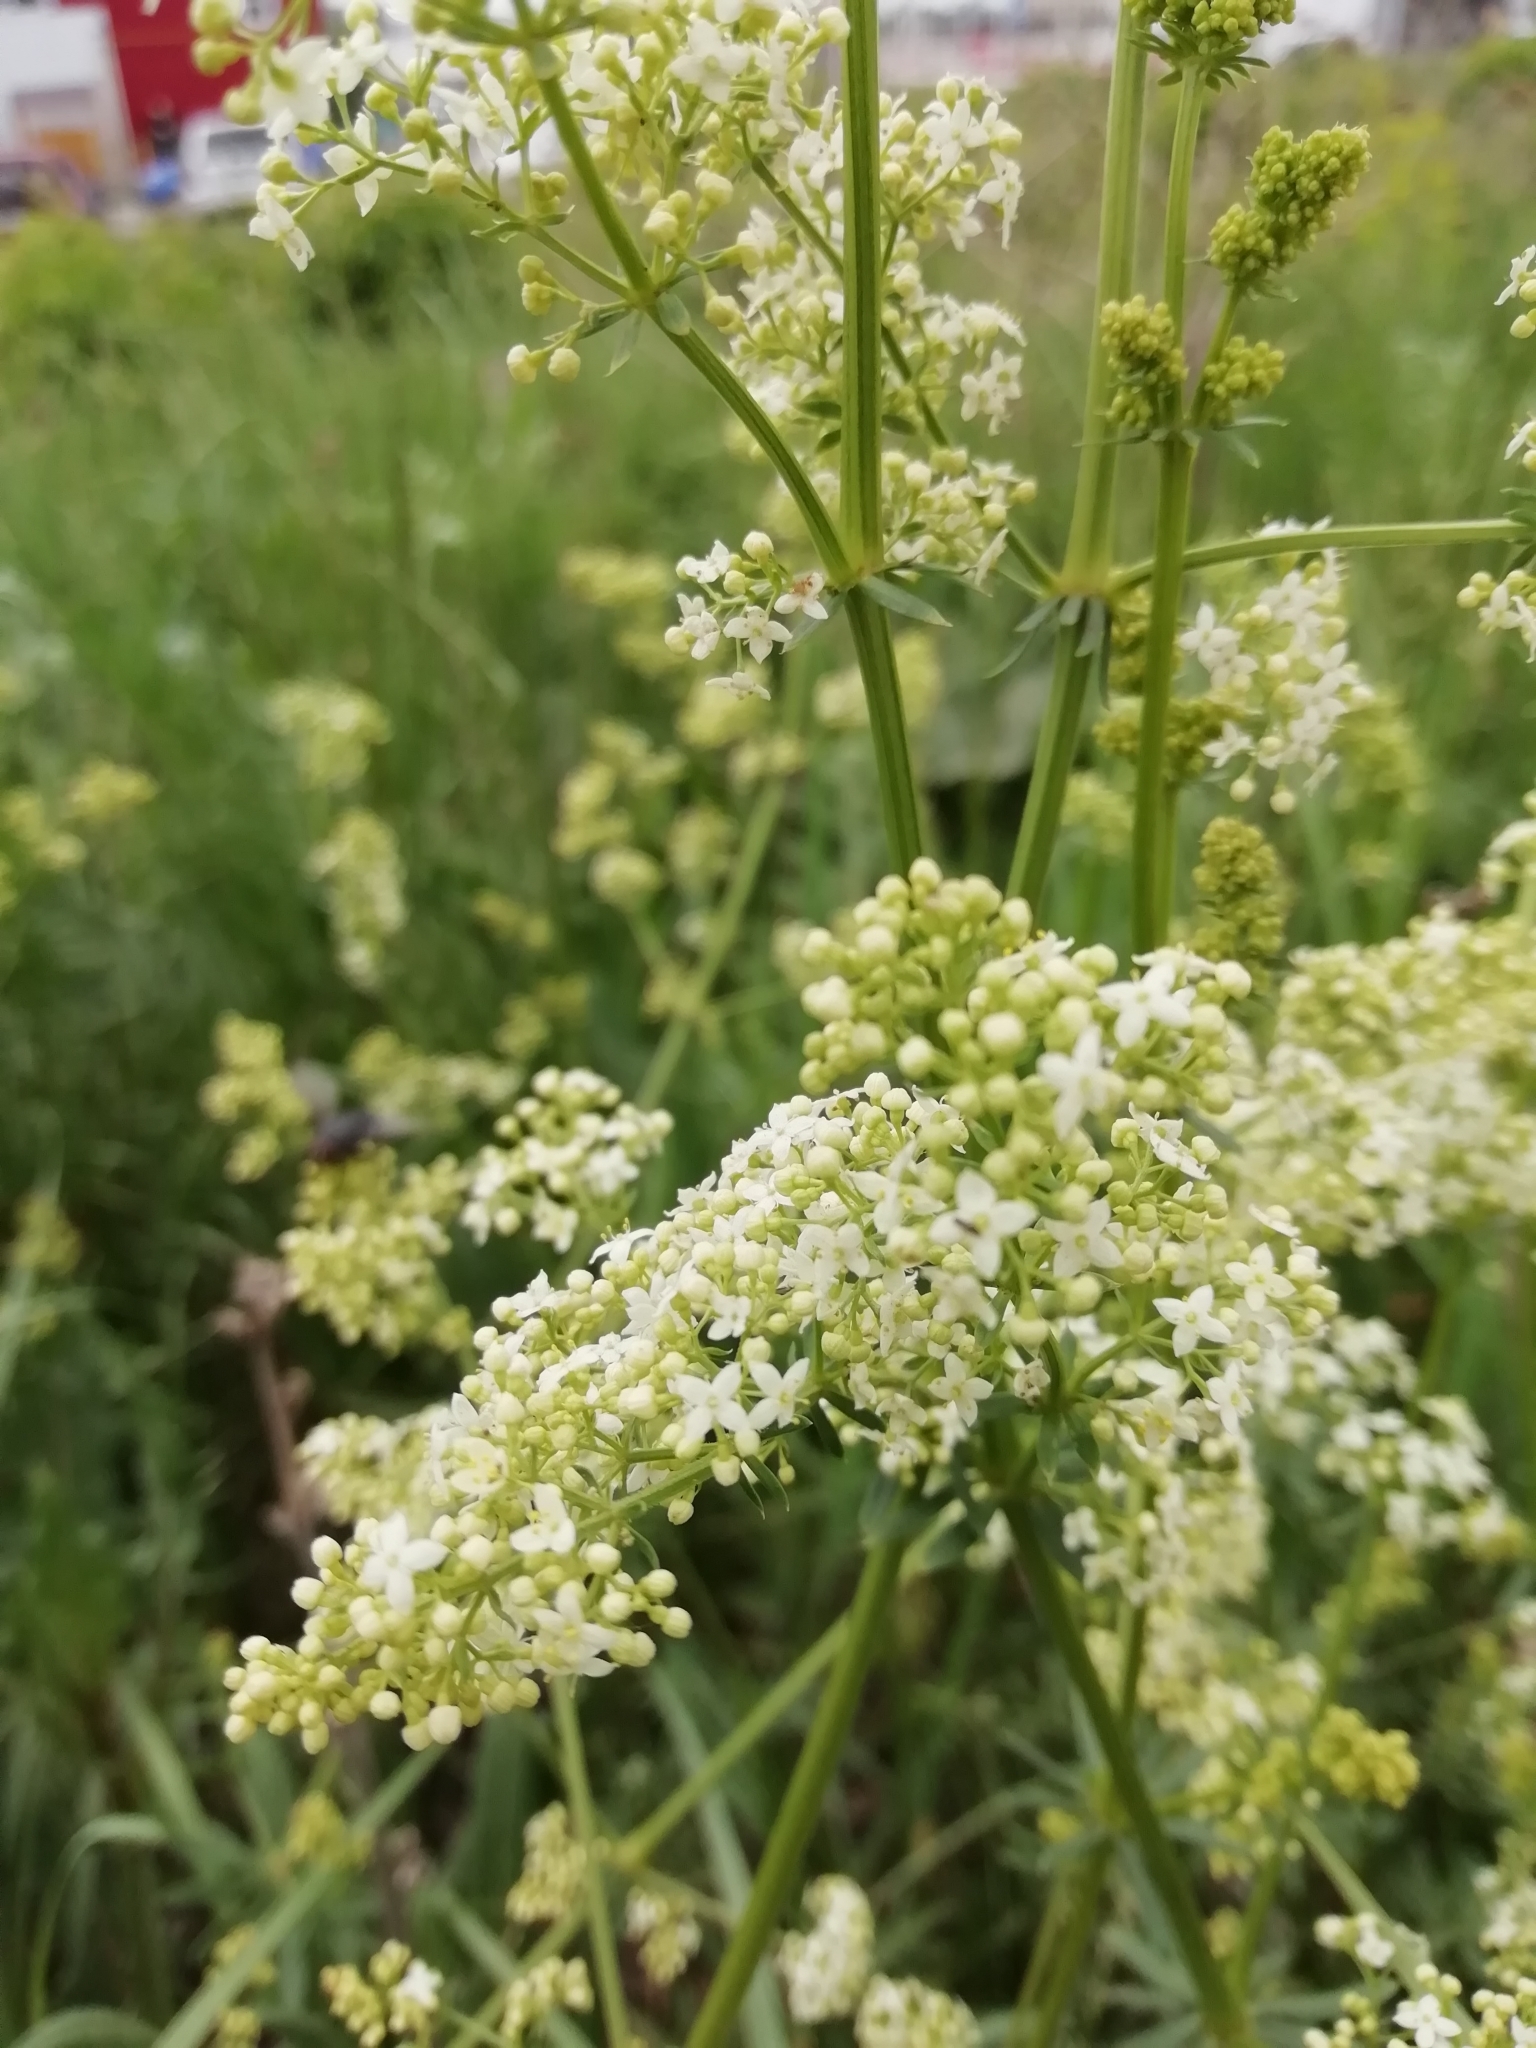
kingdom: Plantae
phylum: Tracheophyta
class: Magnoliopsida
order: Gentianales
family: Rubiaceae
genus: Galium
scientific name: Galium mollugo
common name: Hedge bedstraw
